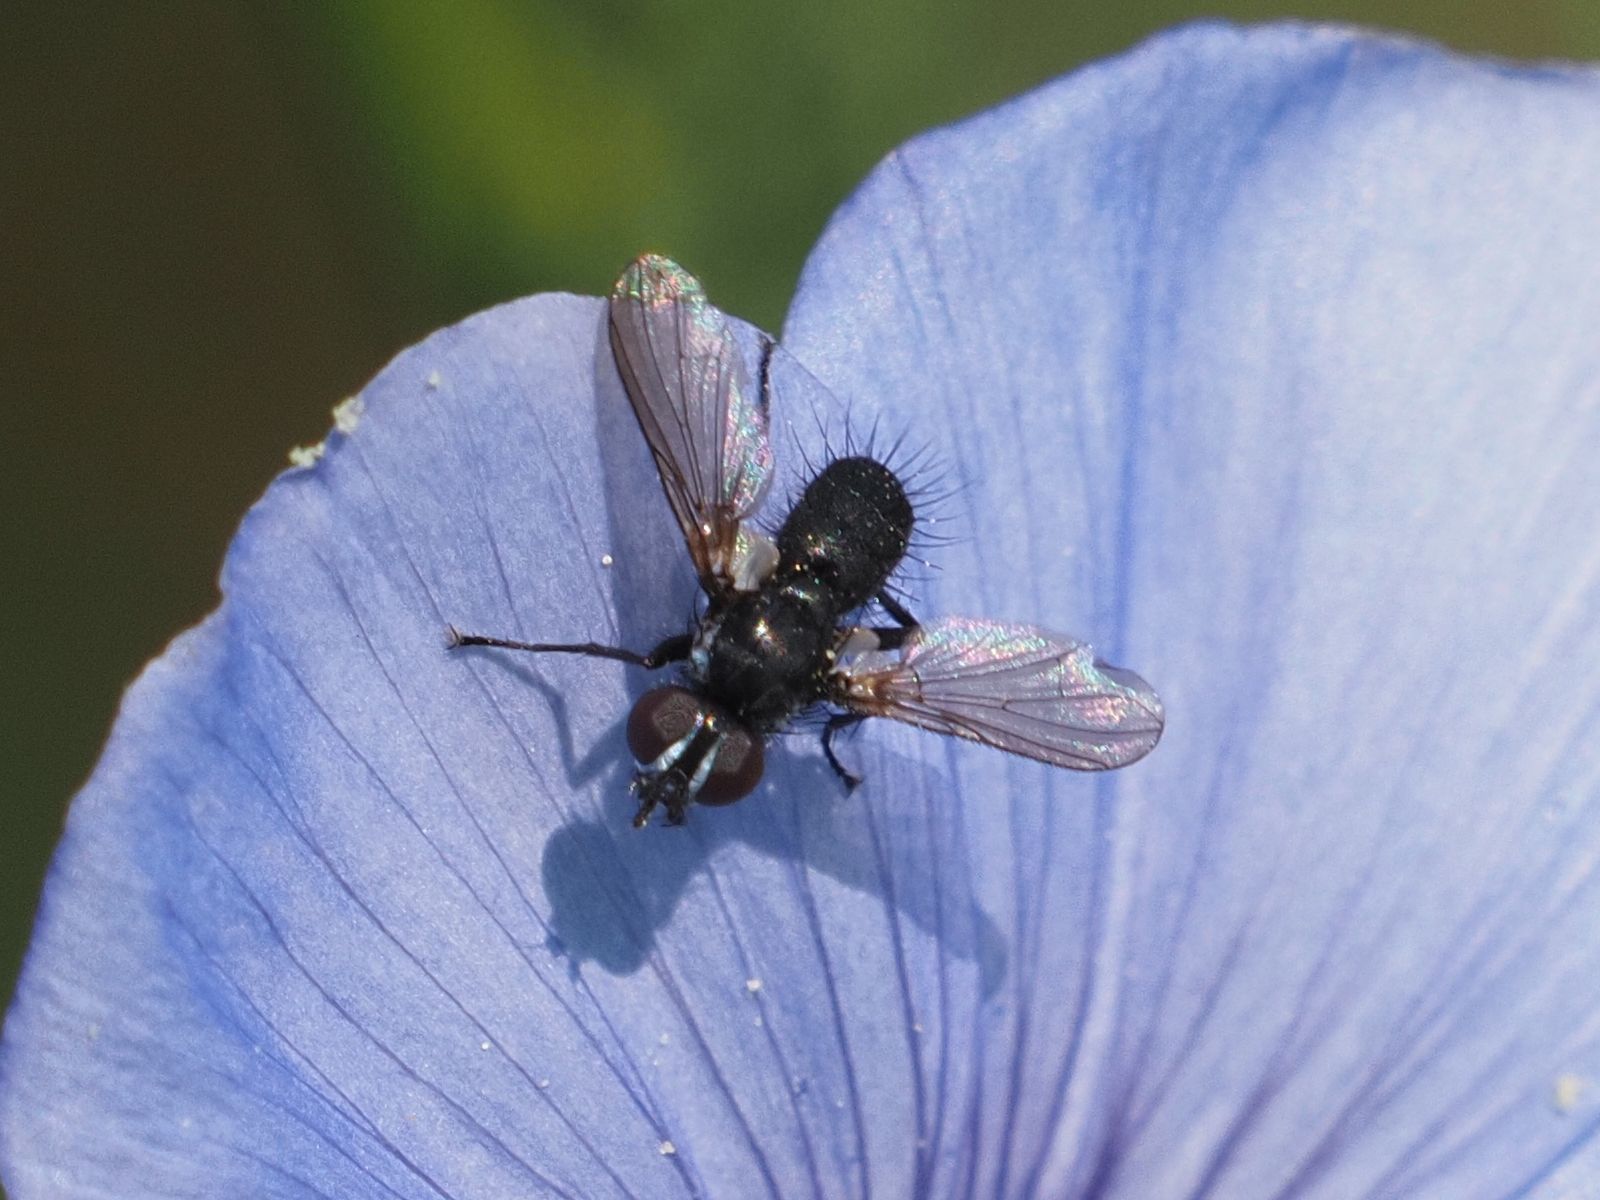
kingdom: Animalia
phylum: Arthropoda
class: Insecta
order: Diptera
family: Tachinidae
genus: Phania
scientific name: Phania funesta
